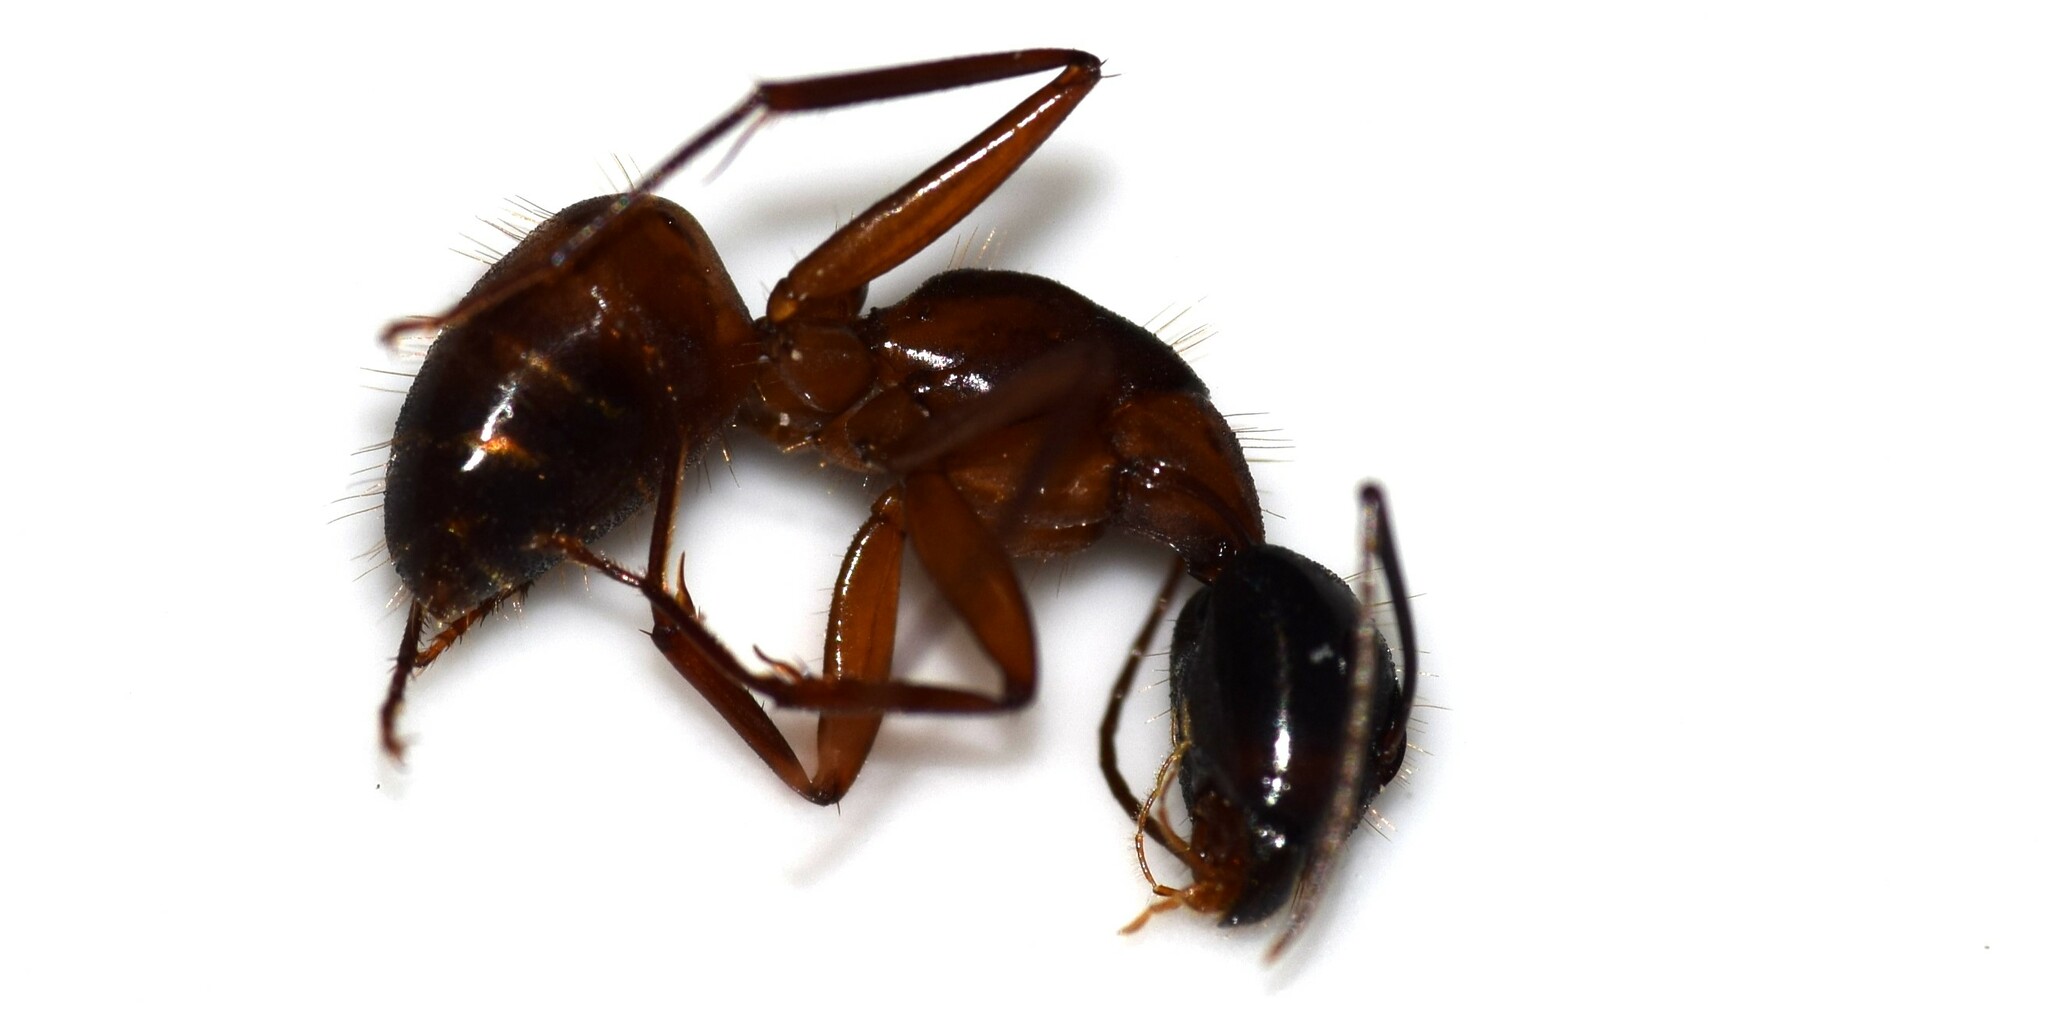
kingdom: Animalia
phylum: Arthropoda
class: Insecta
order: Hymenoptera
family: Formicidae
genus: Camponotus
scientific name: Camponotus americanus
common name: American carpenter ant
